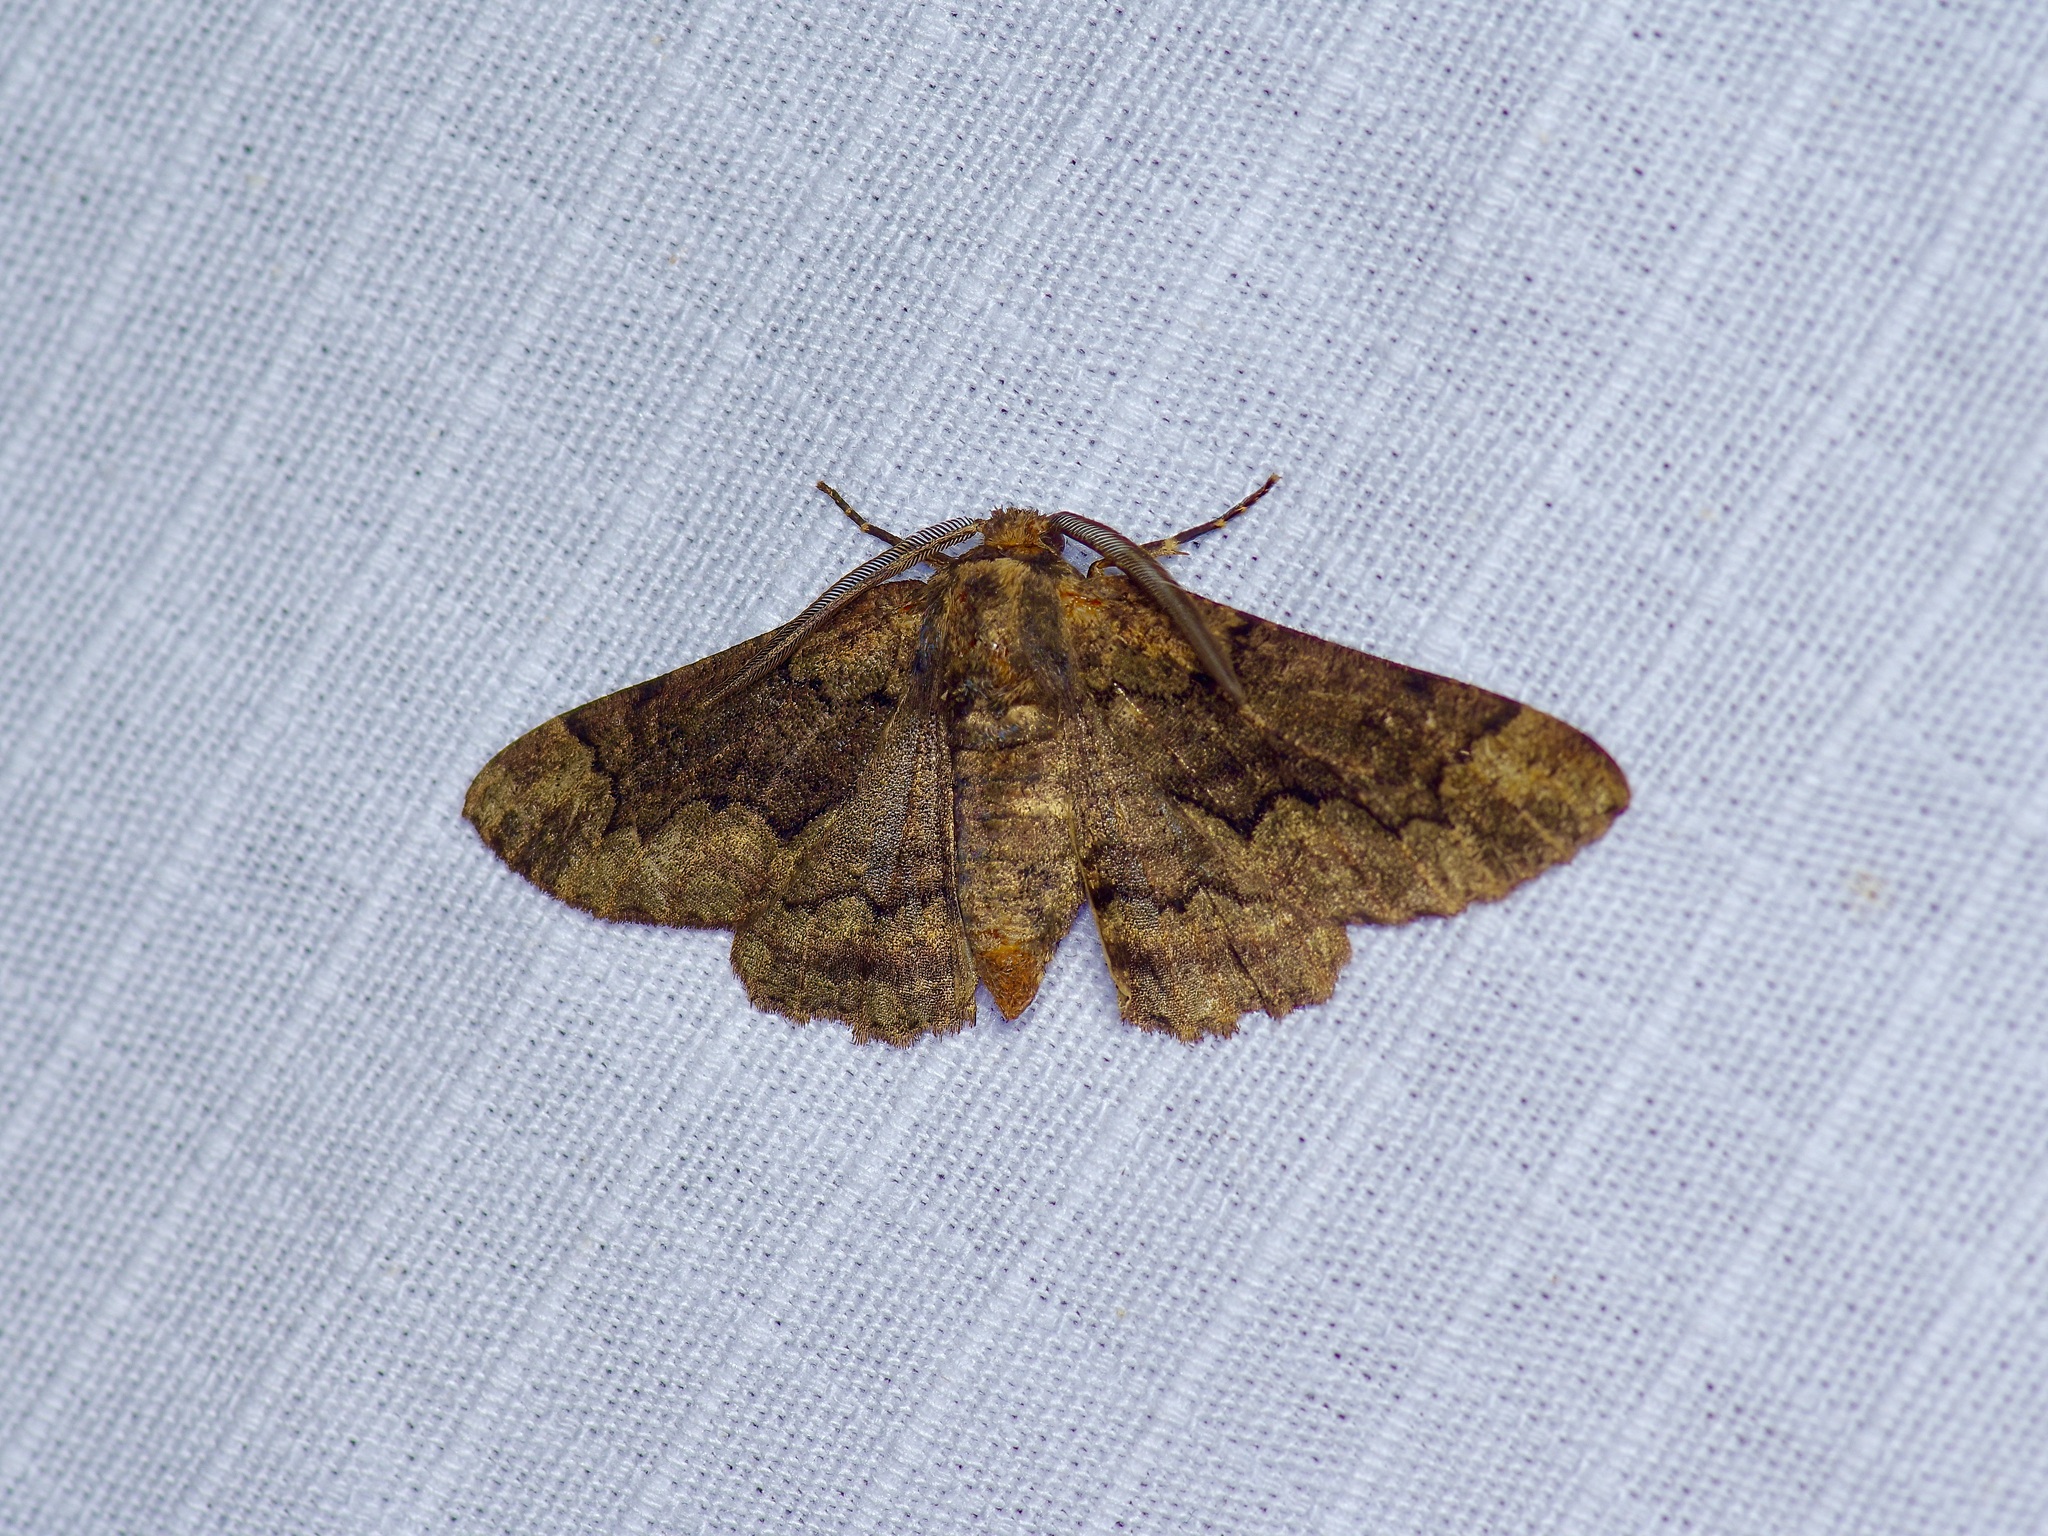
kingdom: Animalia
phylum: Arthropoda
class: Insecta
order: Lepidoptera
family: Geometridae
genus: Phaeoura
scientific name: Phaeoura quernaria
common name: Oak beauty
